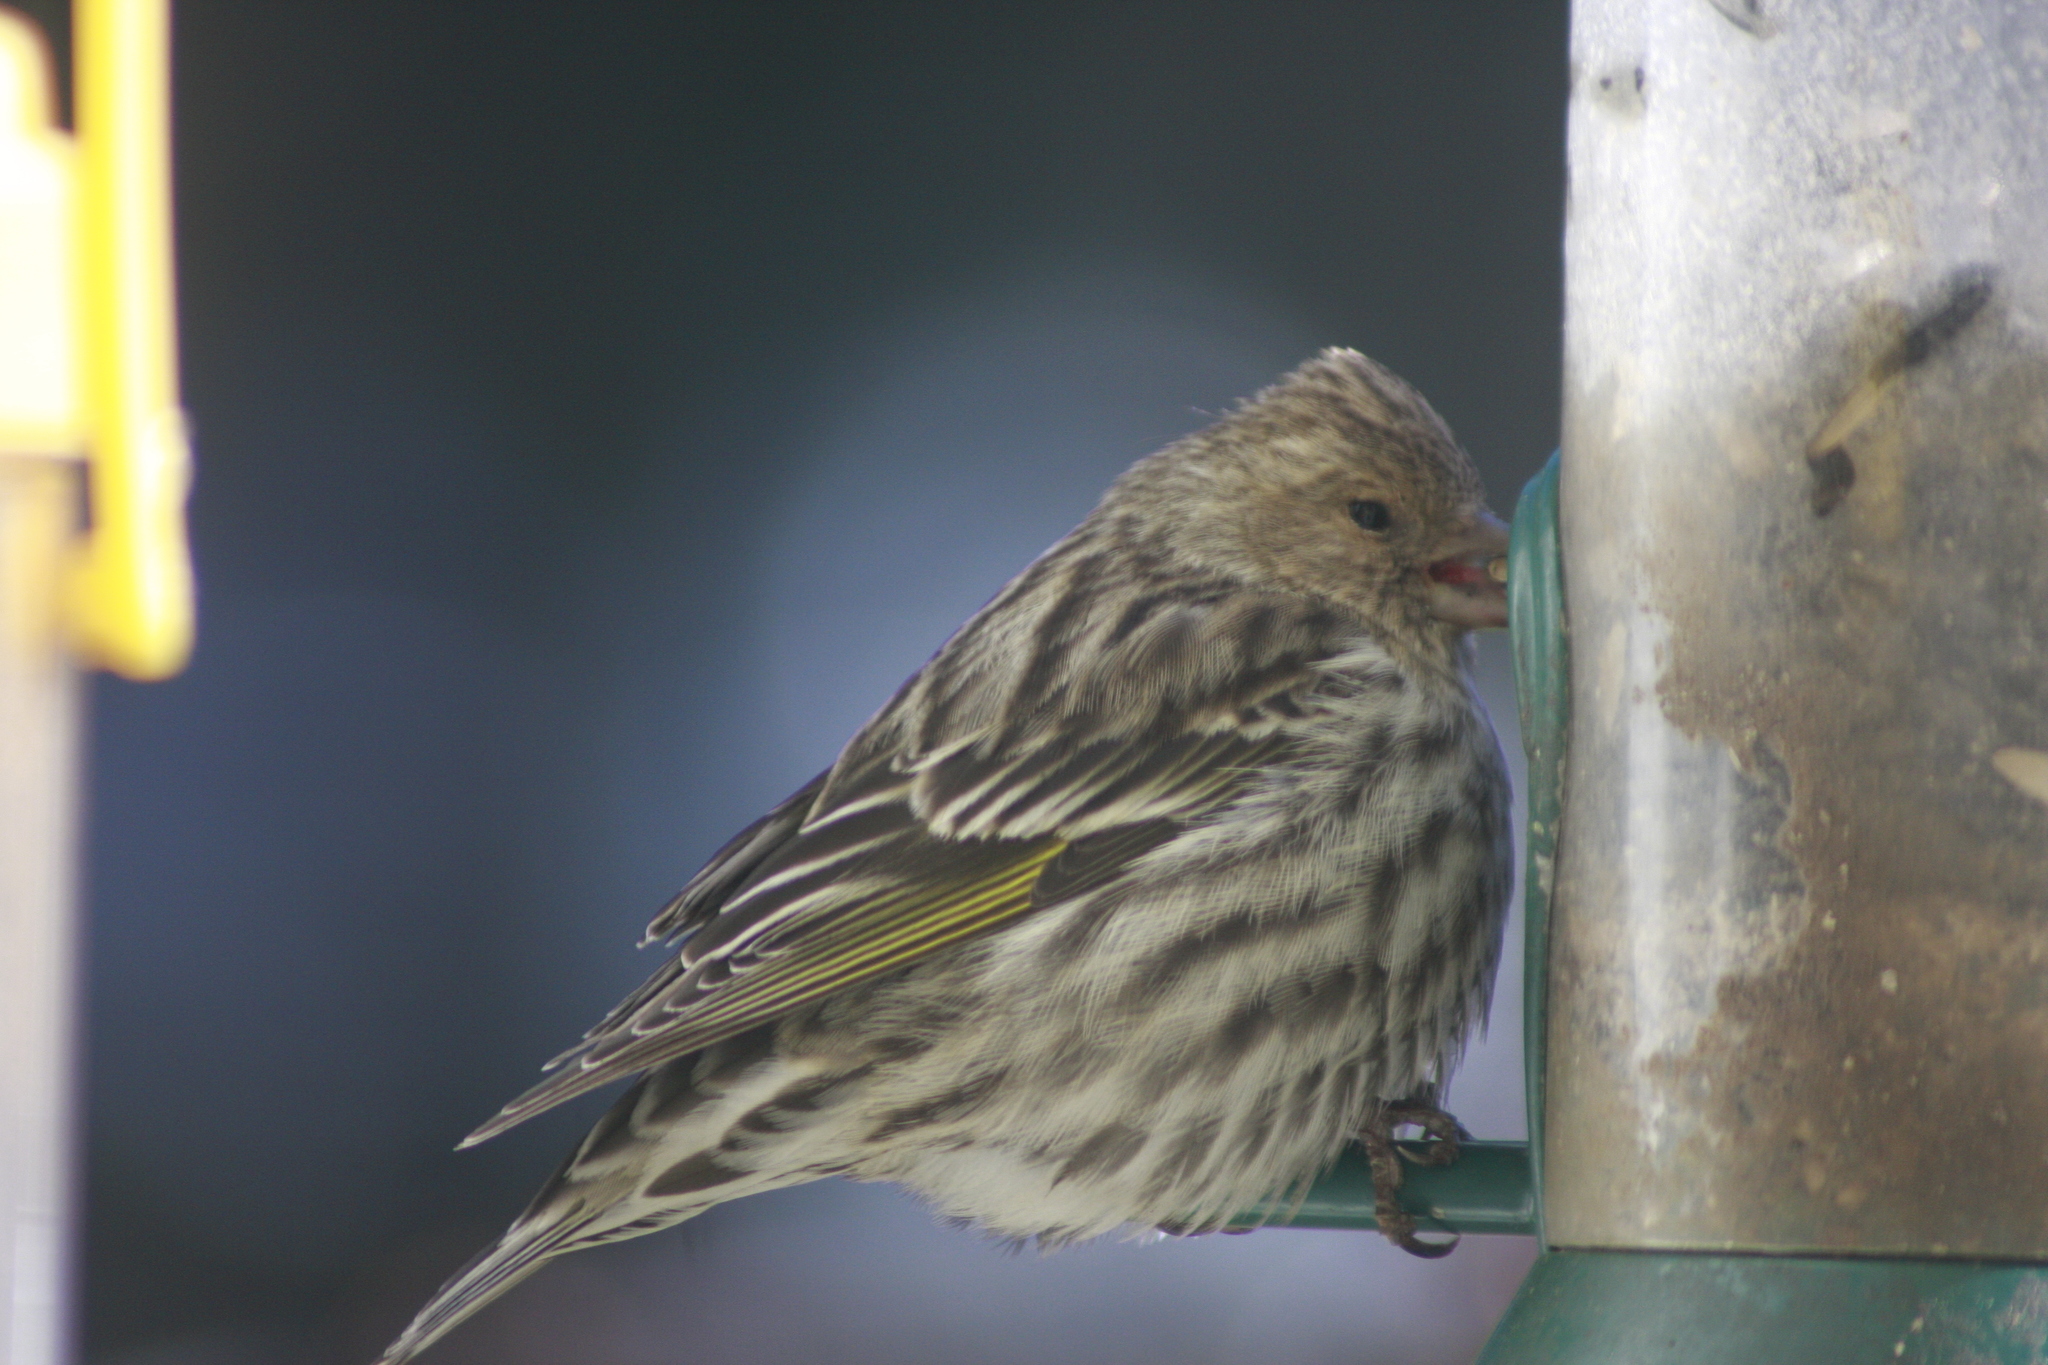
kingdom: Animalia
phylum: Chordata
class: Aves
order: Passeriformes
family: Fringillidae
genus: Spinus
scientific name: Spinus pinus
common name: Pine siskin
